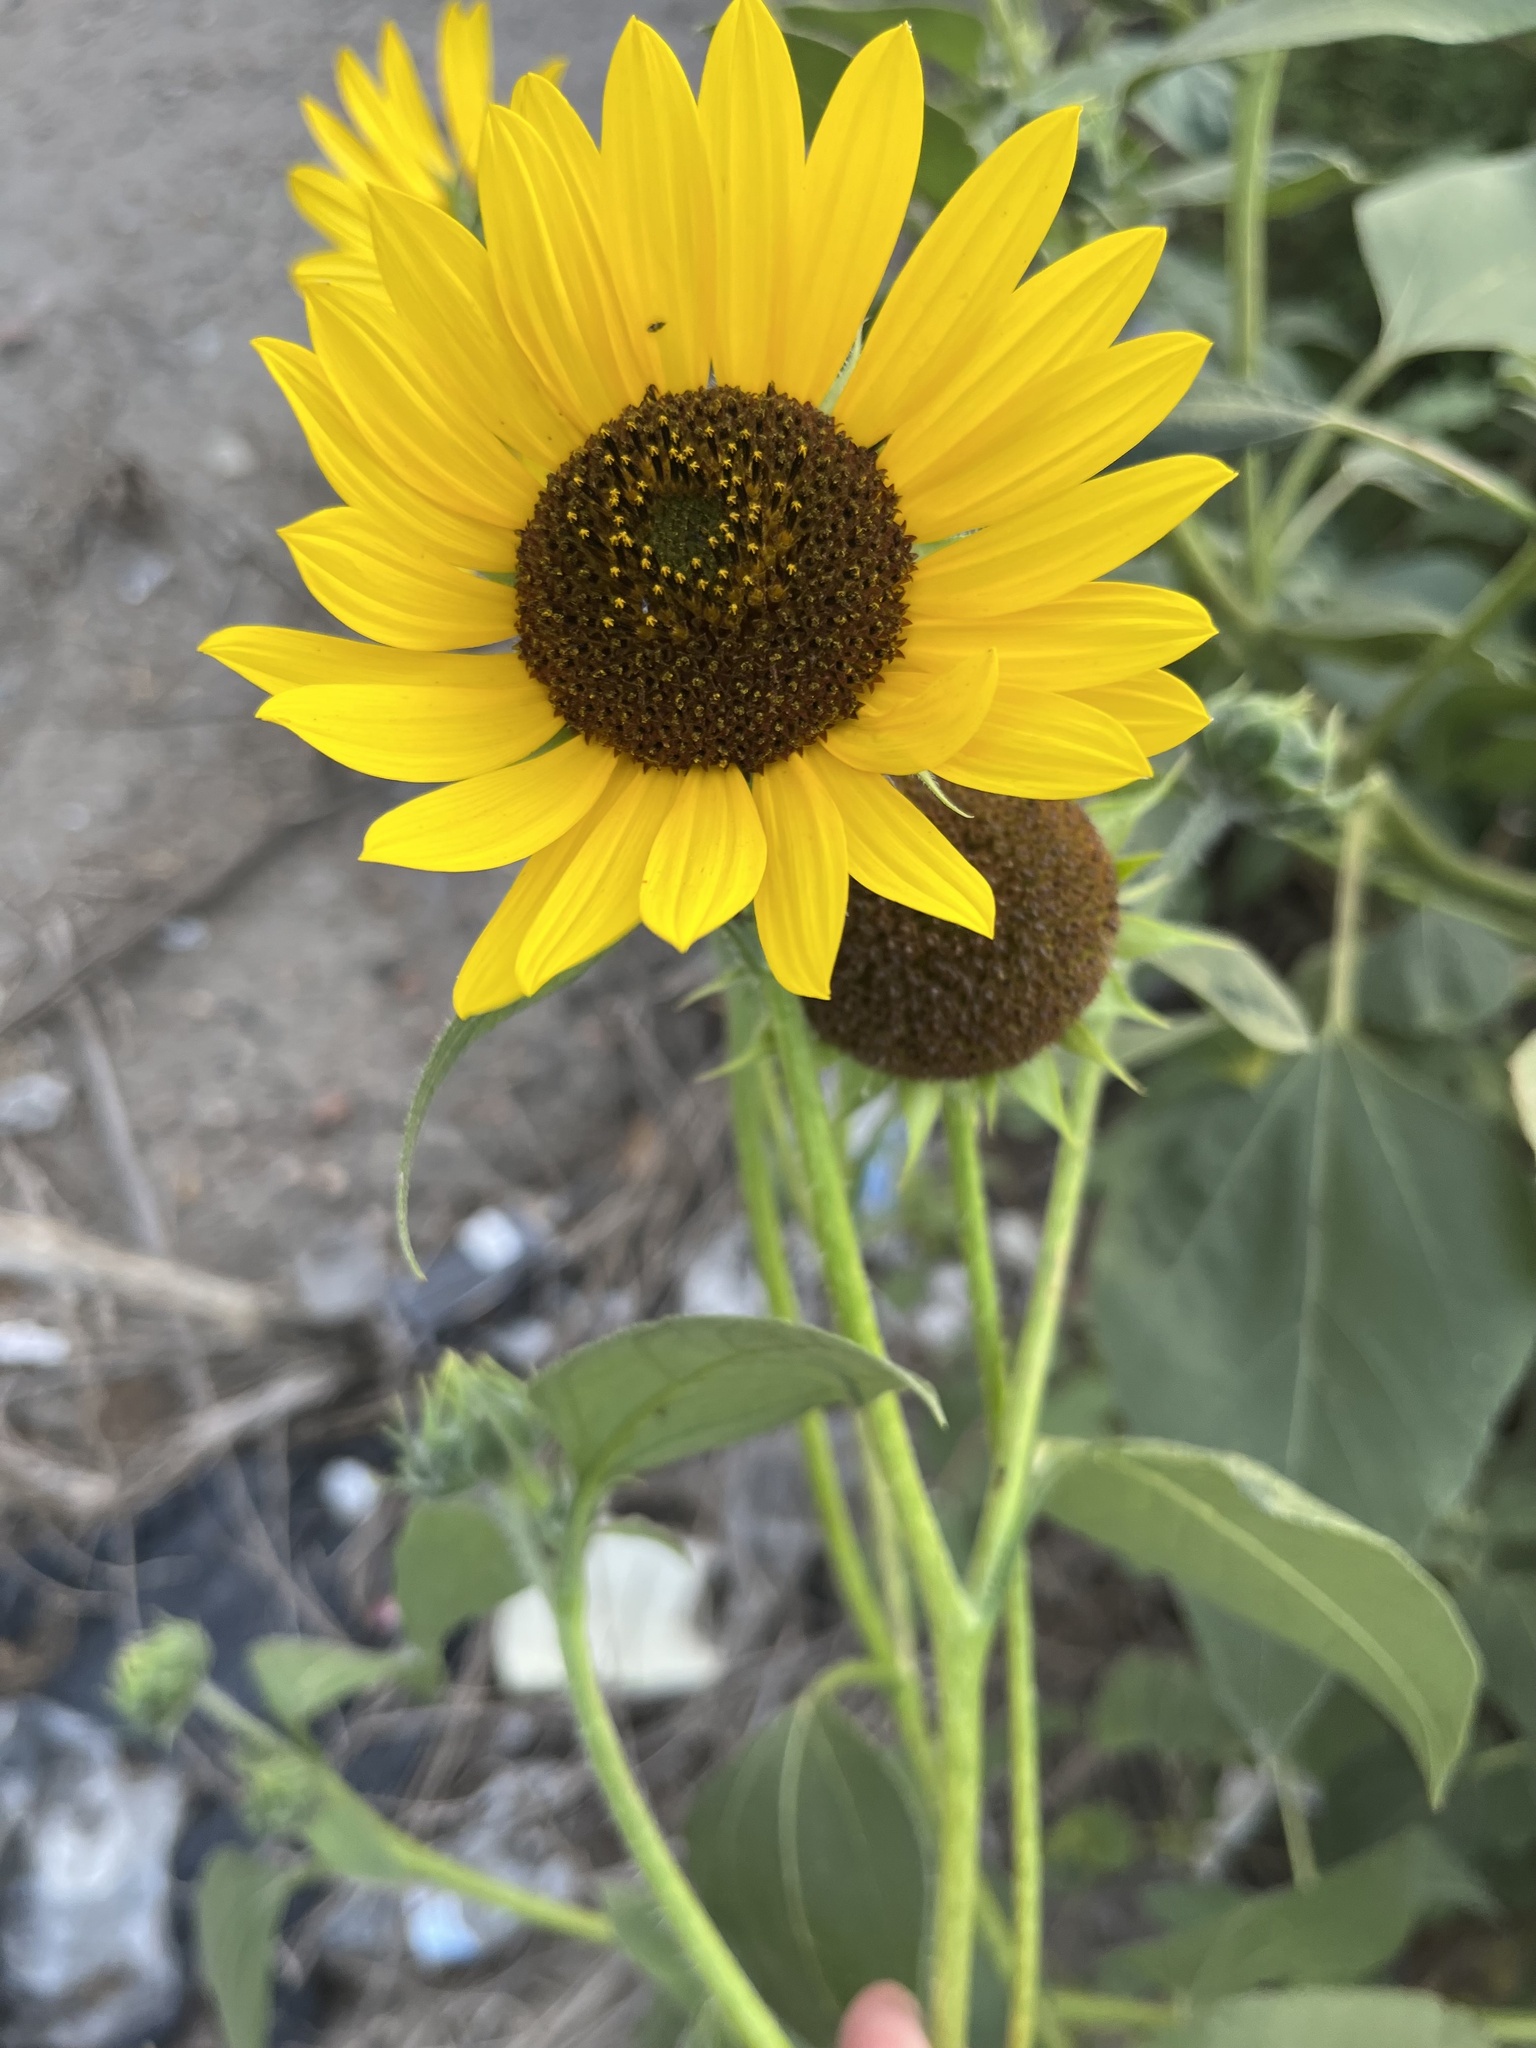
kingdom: Plantae
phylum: Tracheophyta
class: Magnoliopsida
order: Asterales
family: Asteraceae
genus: Helianthus
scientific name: Helianthus annuus
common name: Sunflower
